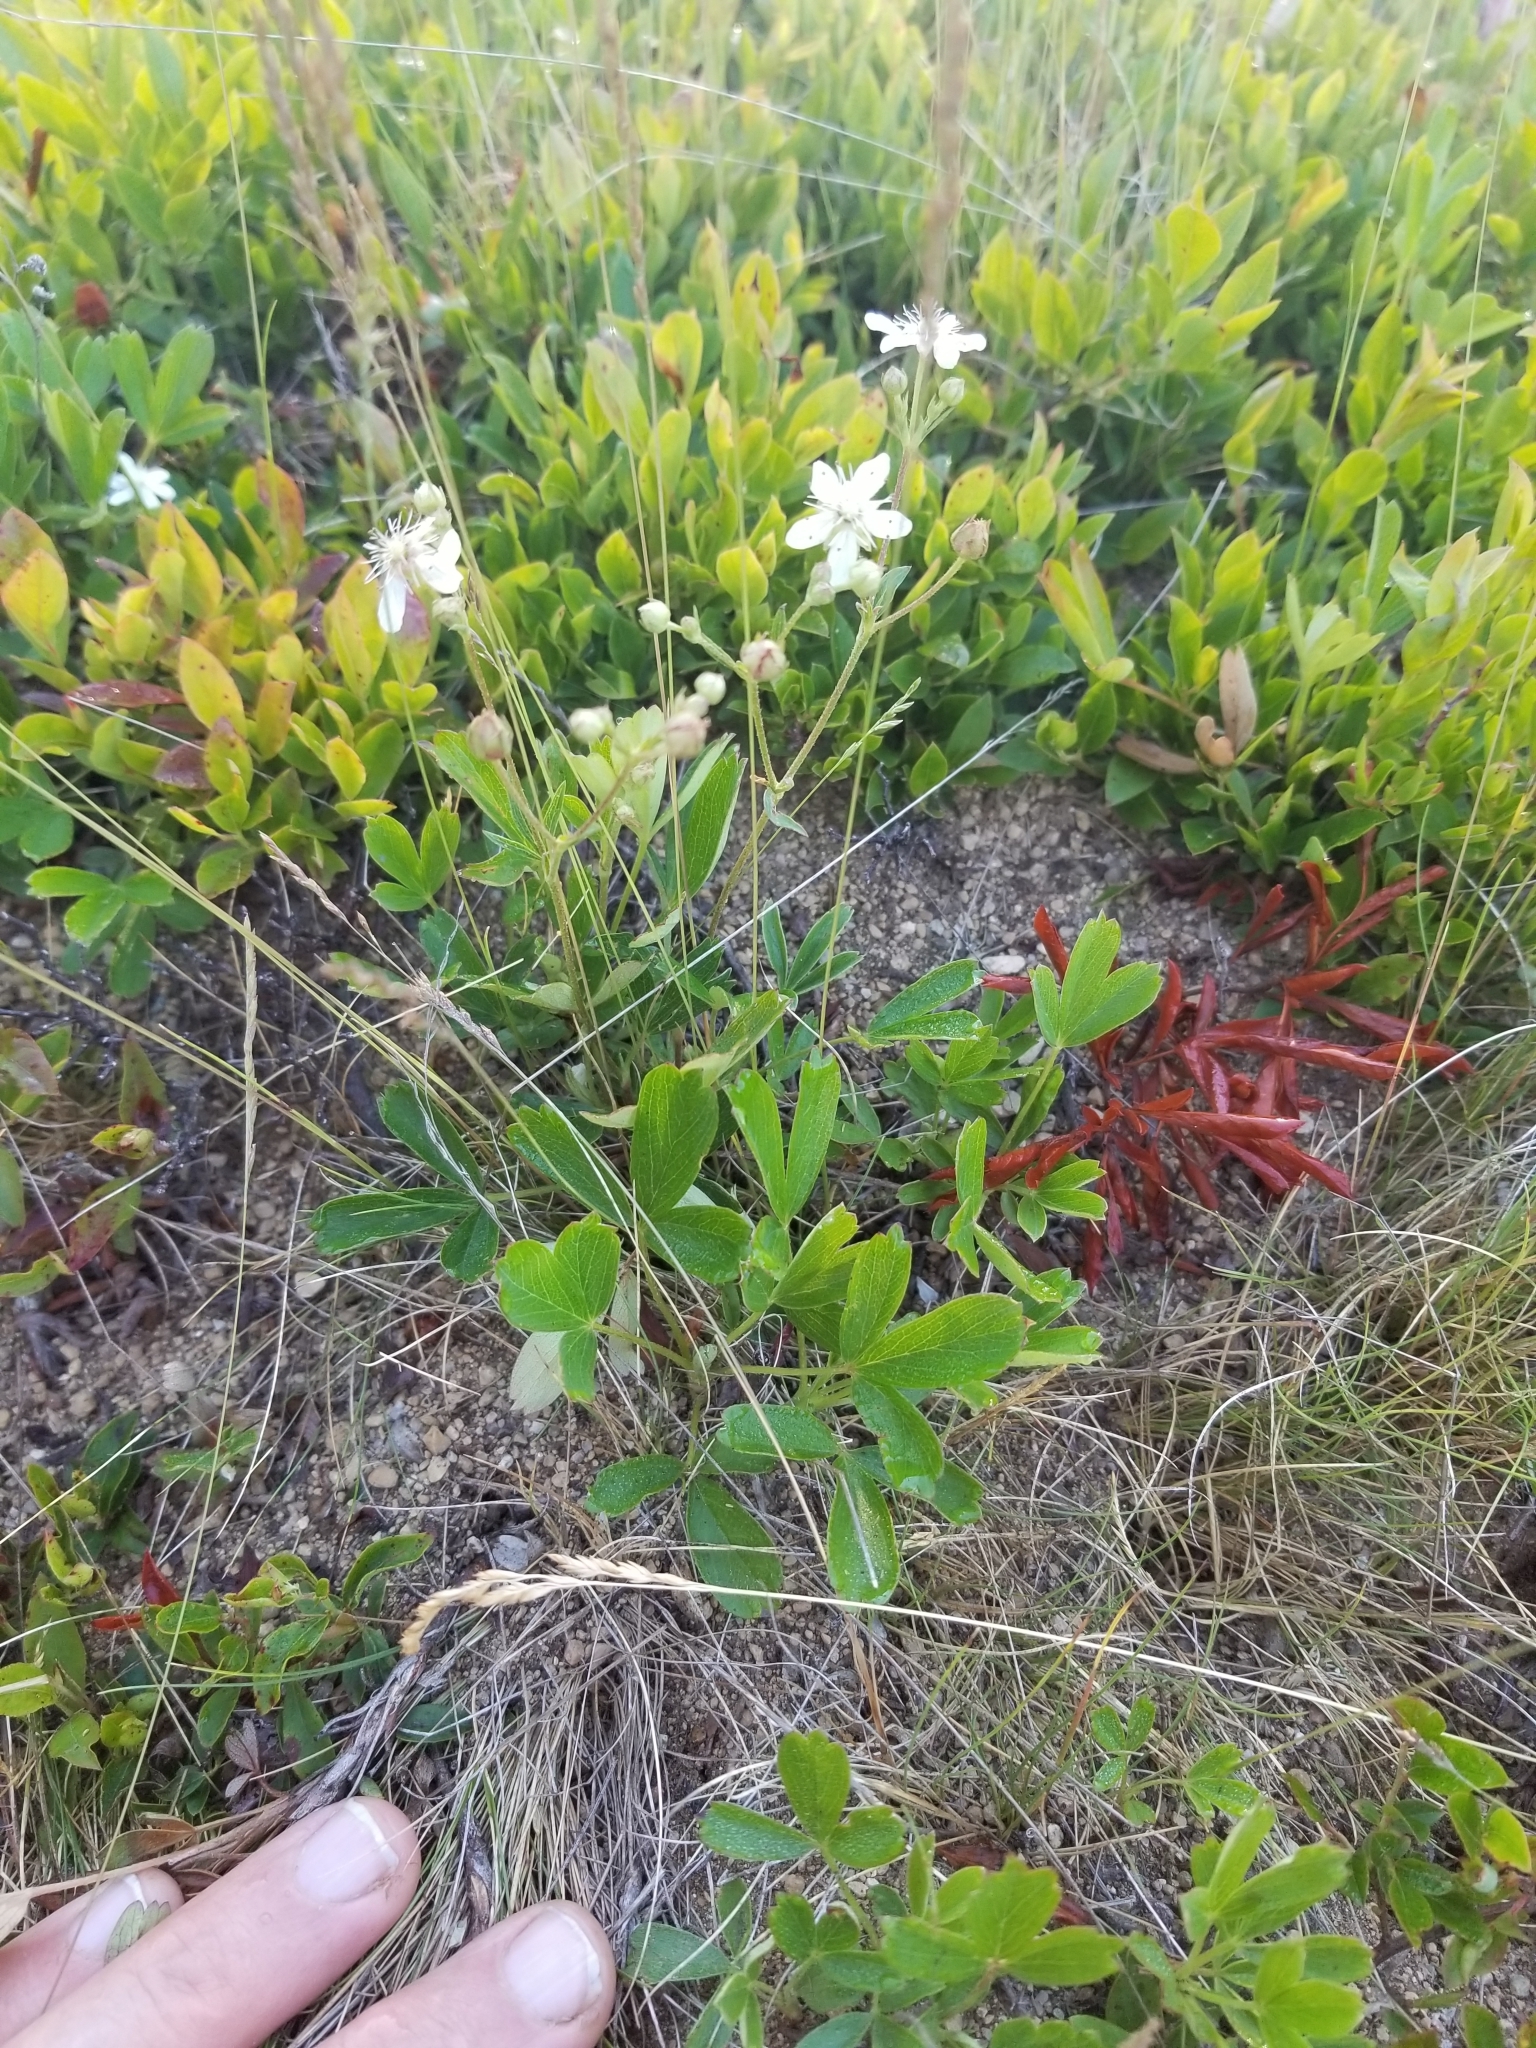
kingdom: Plantae
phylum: Tracheophyta
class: Magnoliopsida
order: Rosales
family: Rosaceae
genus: Sibbaldia
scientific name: Sibbaldia tridentata
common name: Three-toothed cinquefoil
